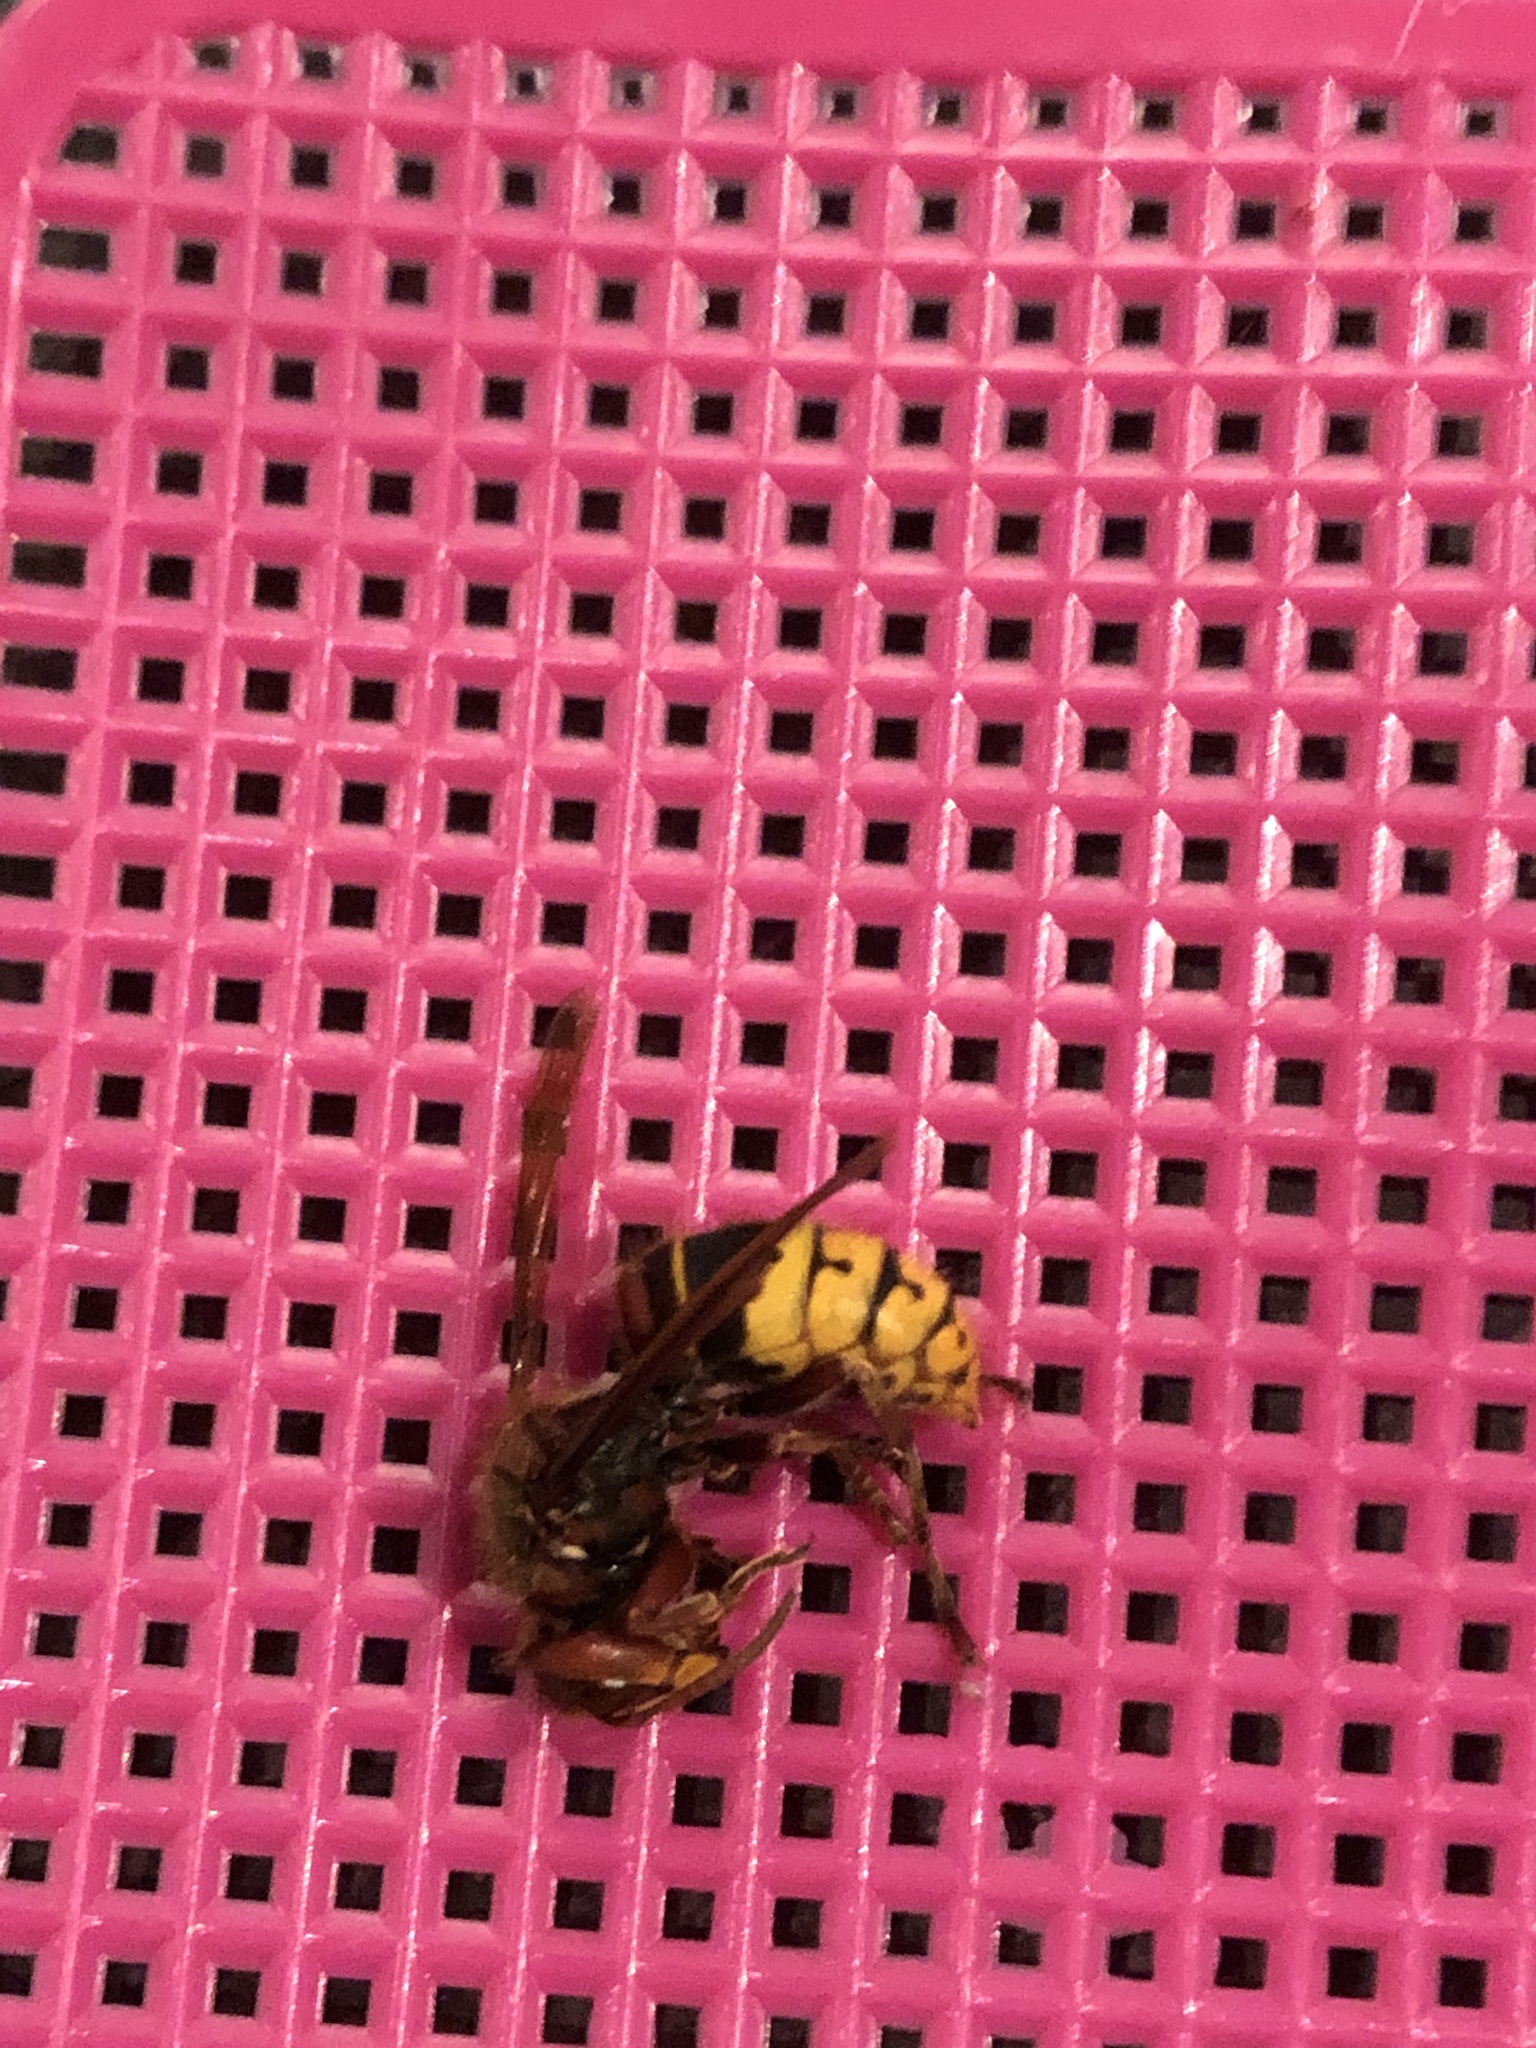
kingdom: Animalia
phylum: Arthropoda
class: Insecta
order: Hymenoptera
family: Vespidae
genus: Vespa
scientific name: Vespa crabro
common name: Hornet
